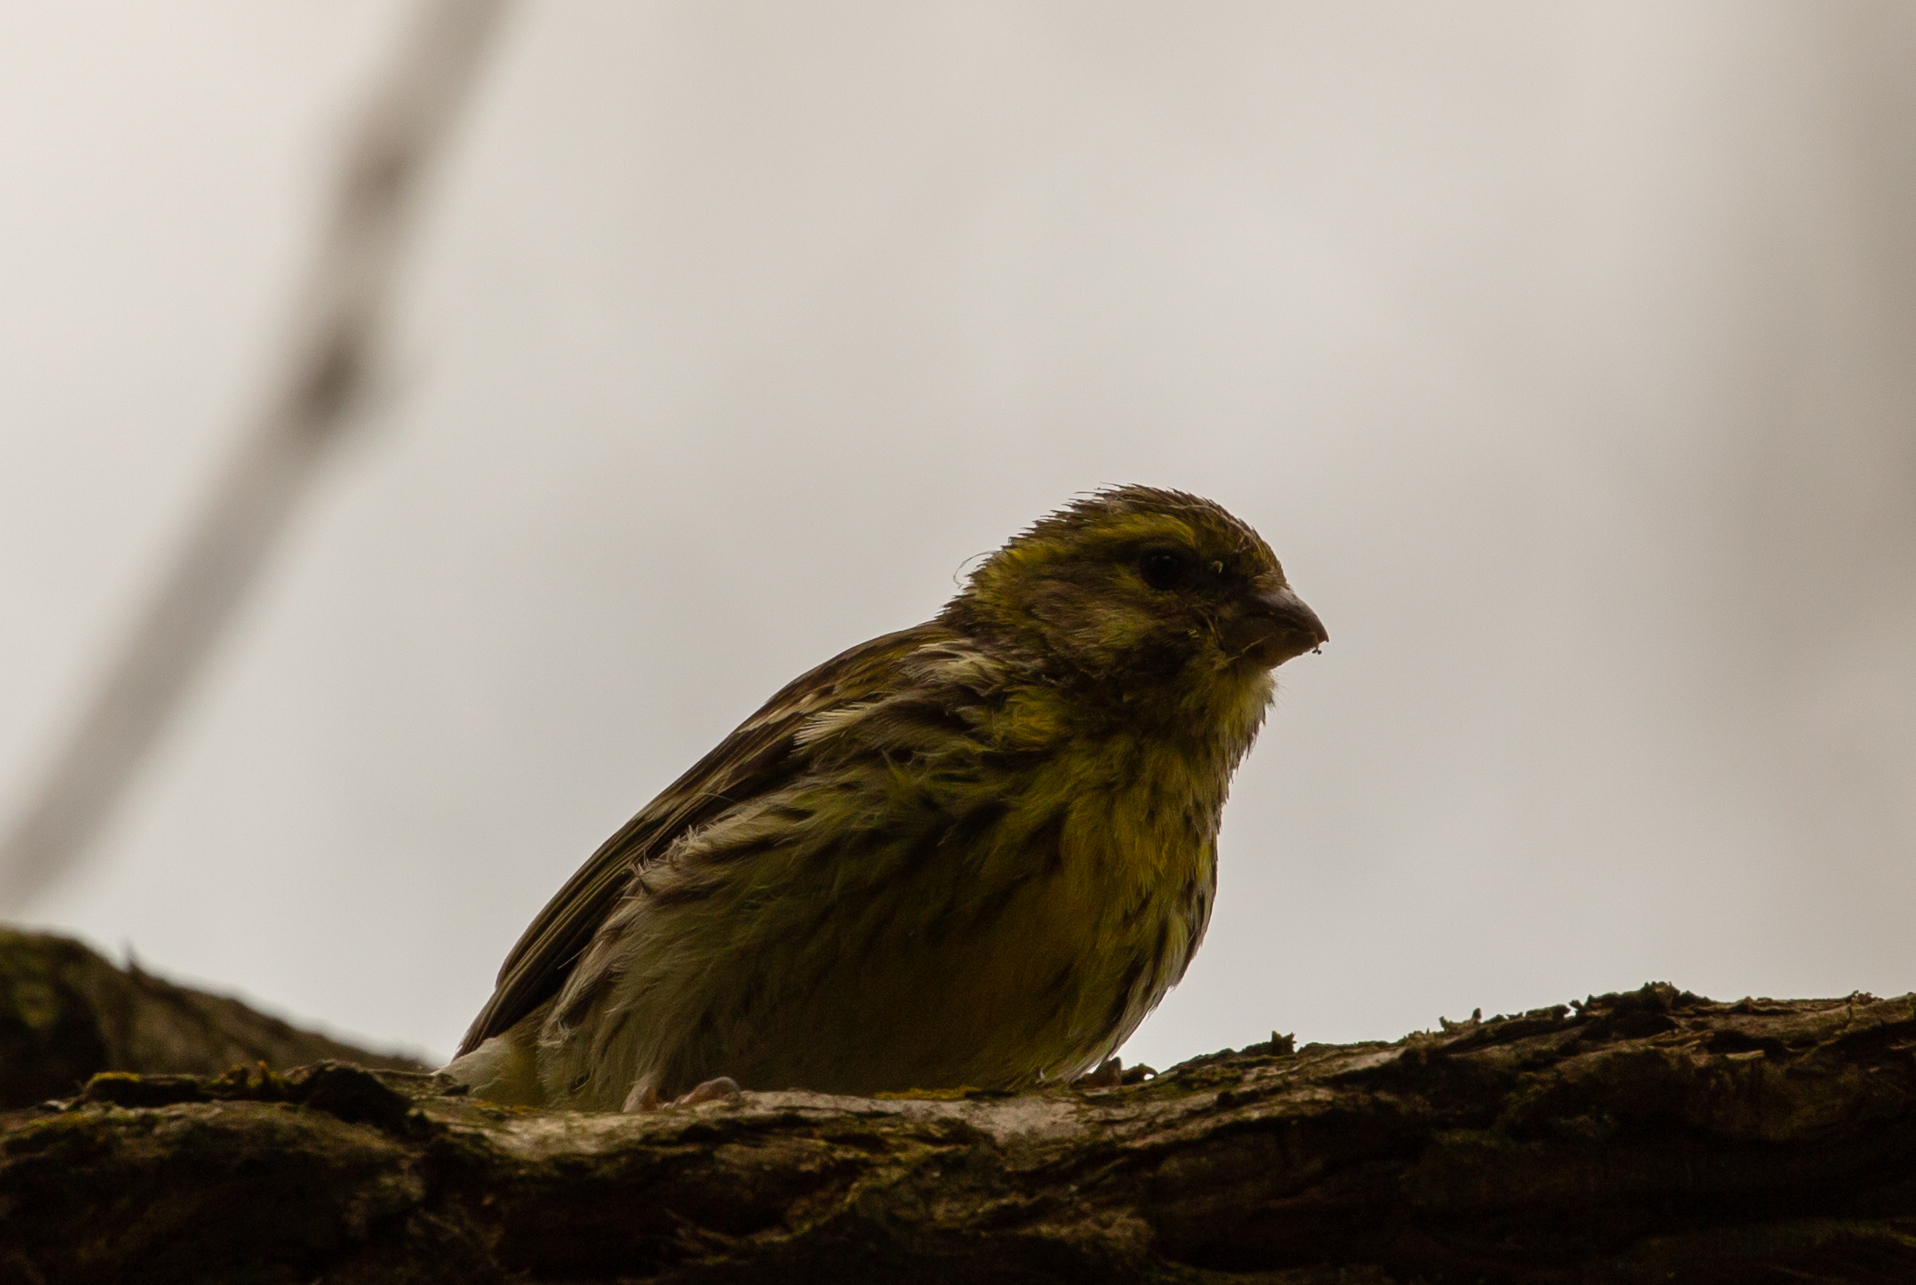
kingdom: Animalia
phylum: Chordata
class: Aves
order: Passeriformes
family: Fringillidae
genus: Serinus
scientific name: Serinus serinus
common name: European serin
